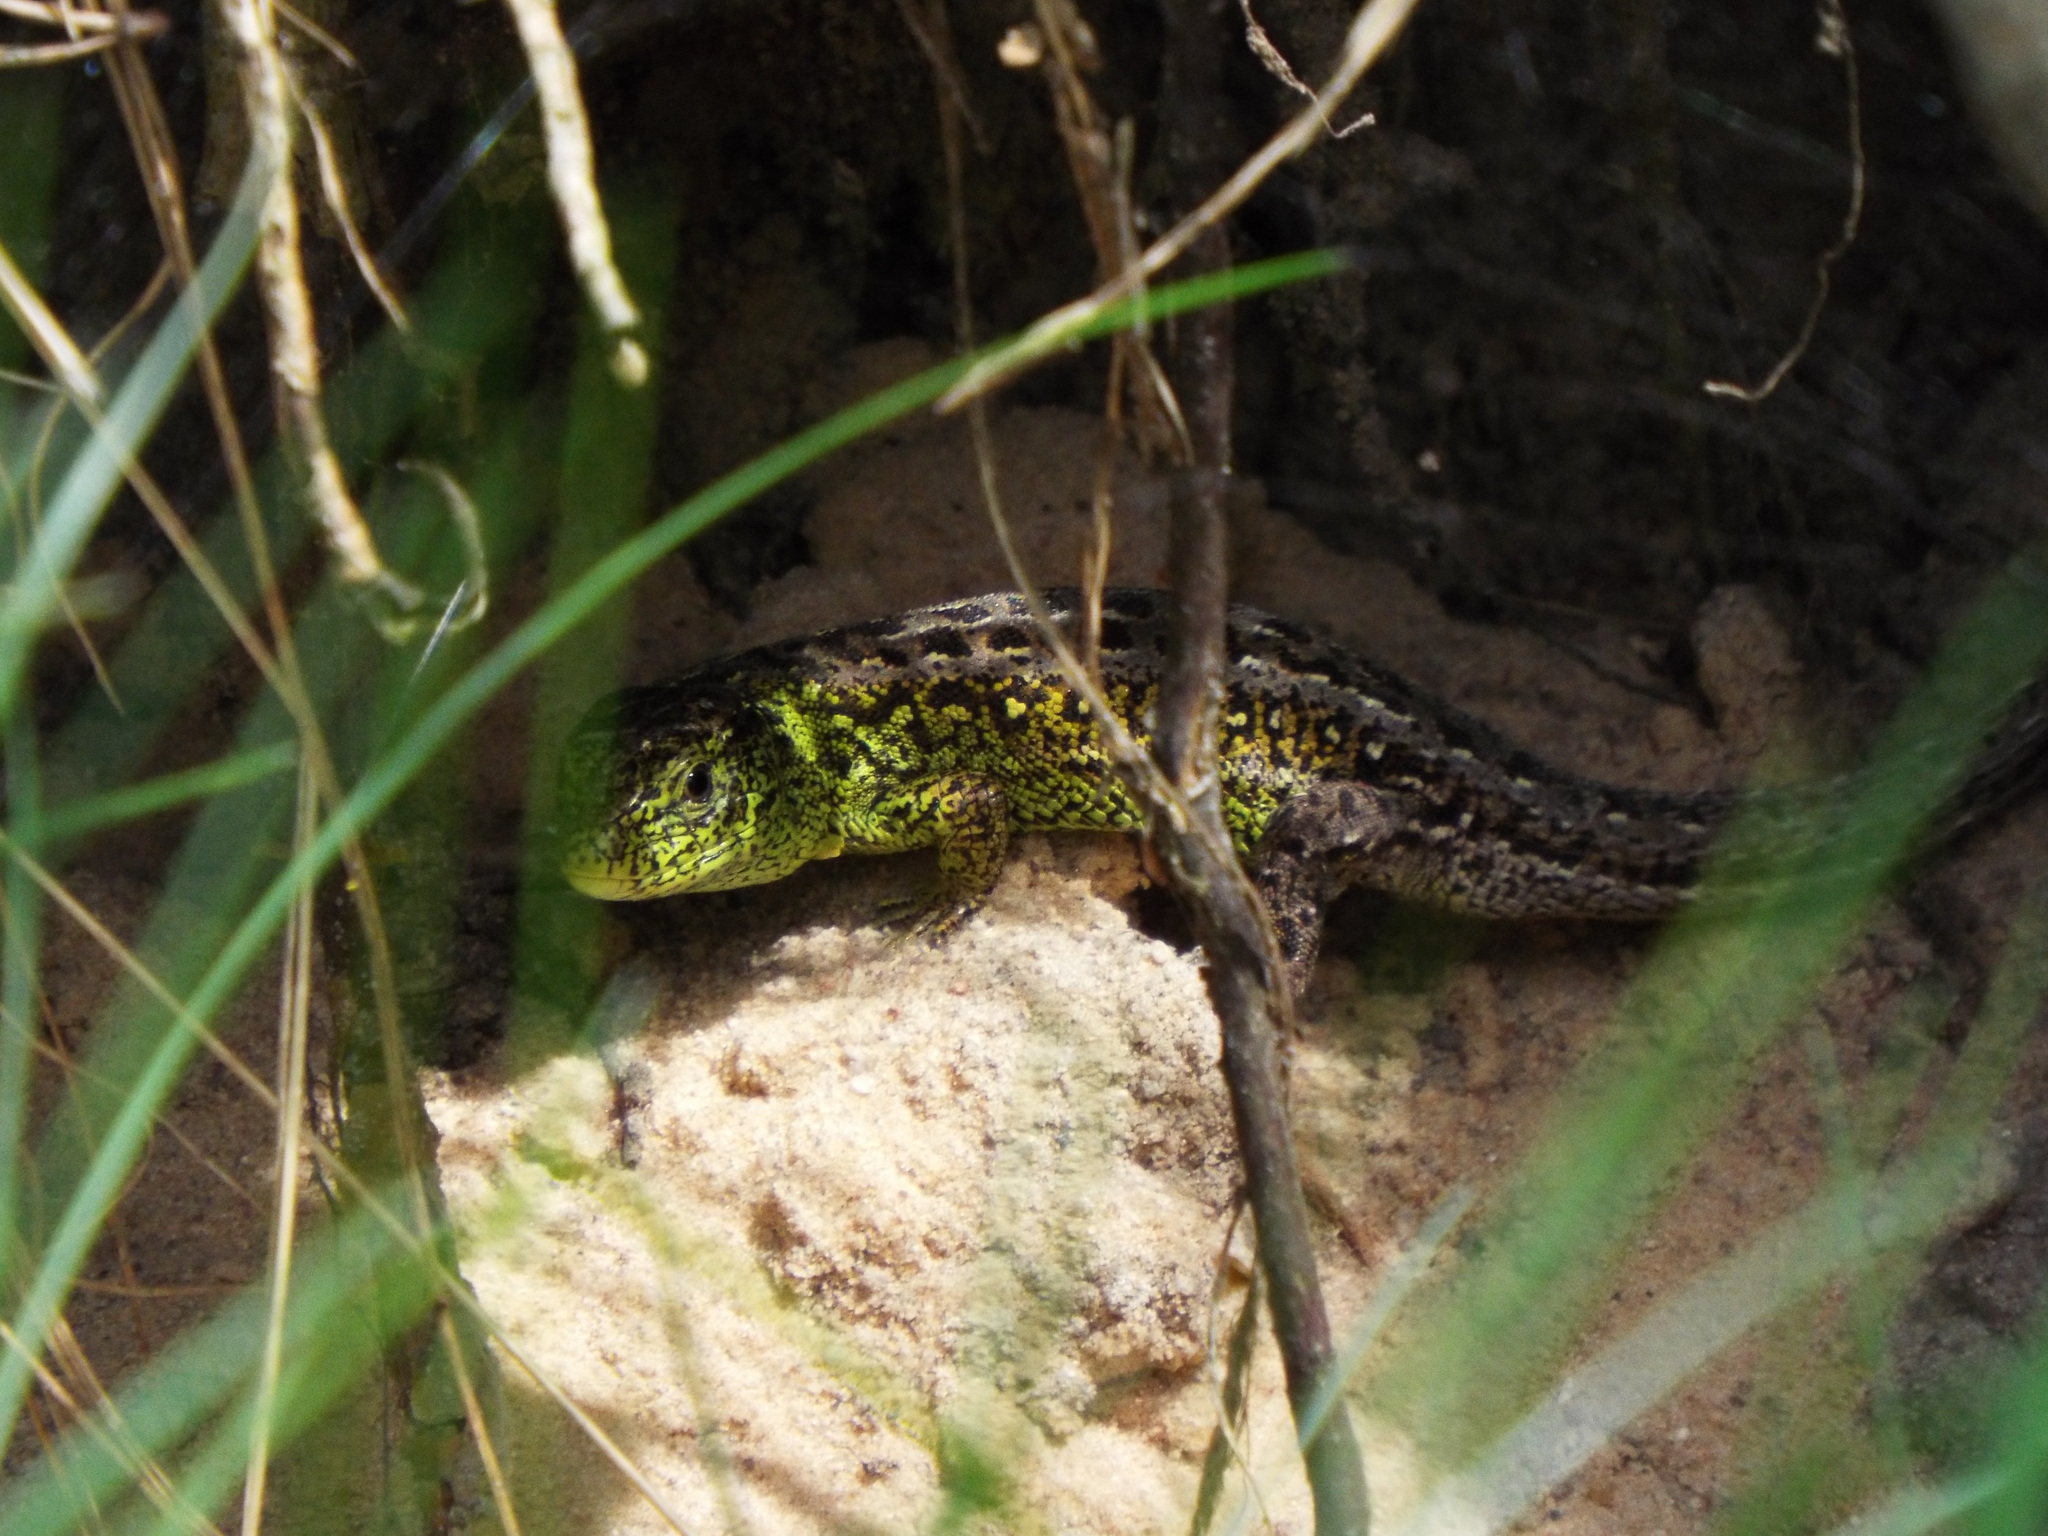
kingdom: Animalia
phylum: Chordata
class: Squamata
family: Lacertidae
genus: Lacerta
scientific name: Lacerta agilis
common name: Sand lizard
